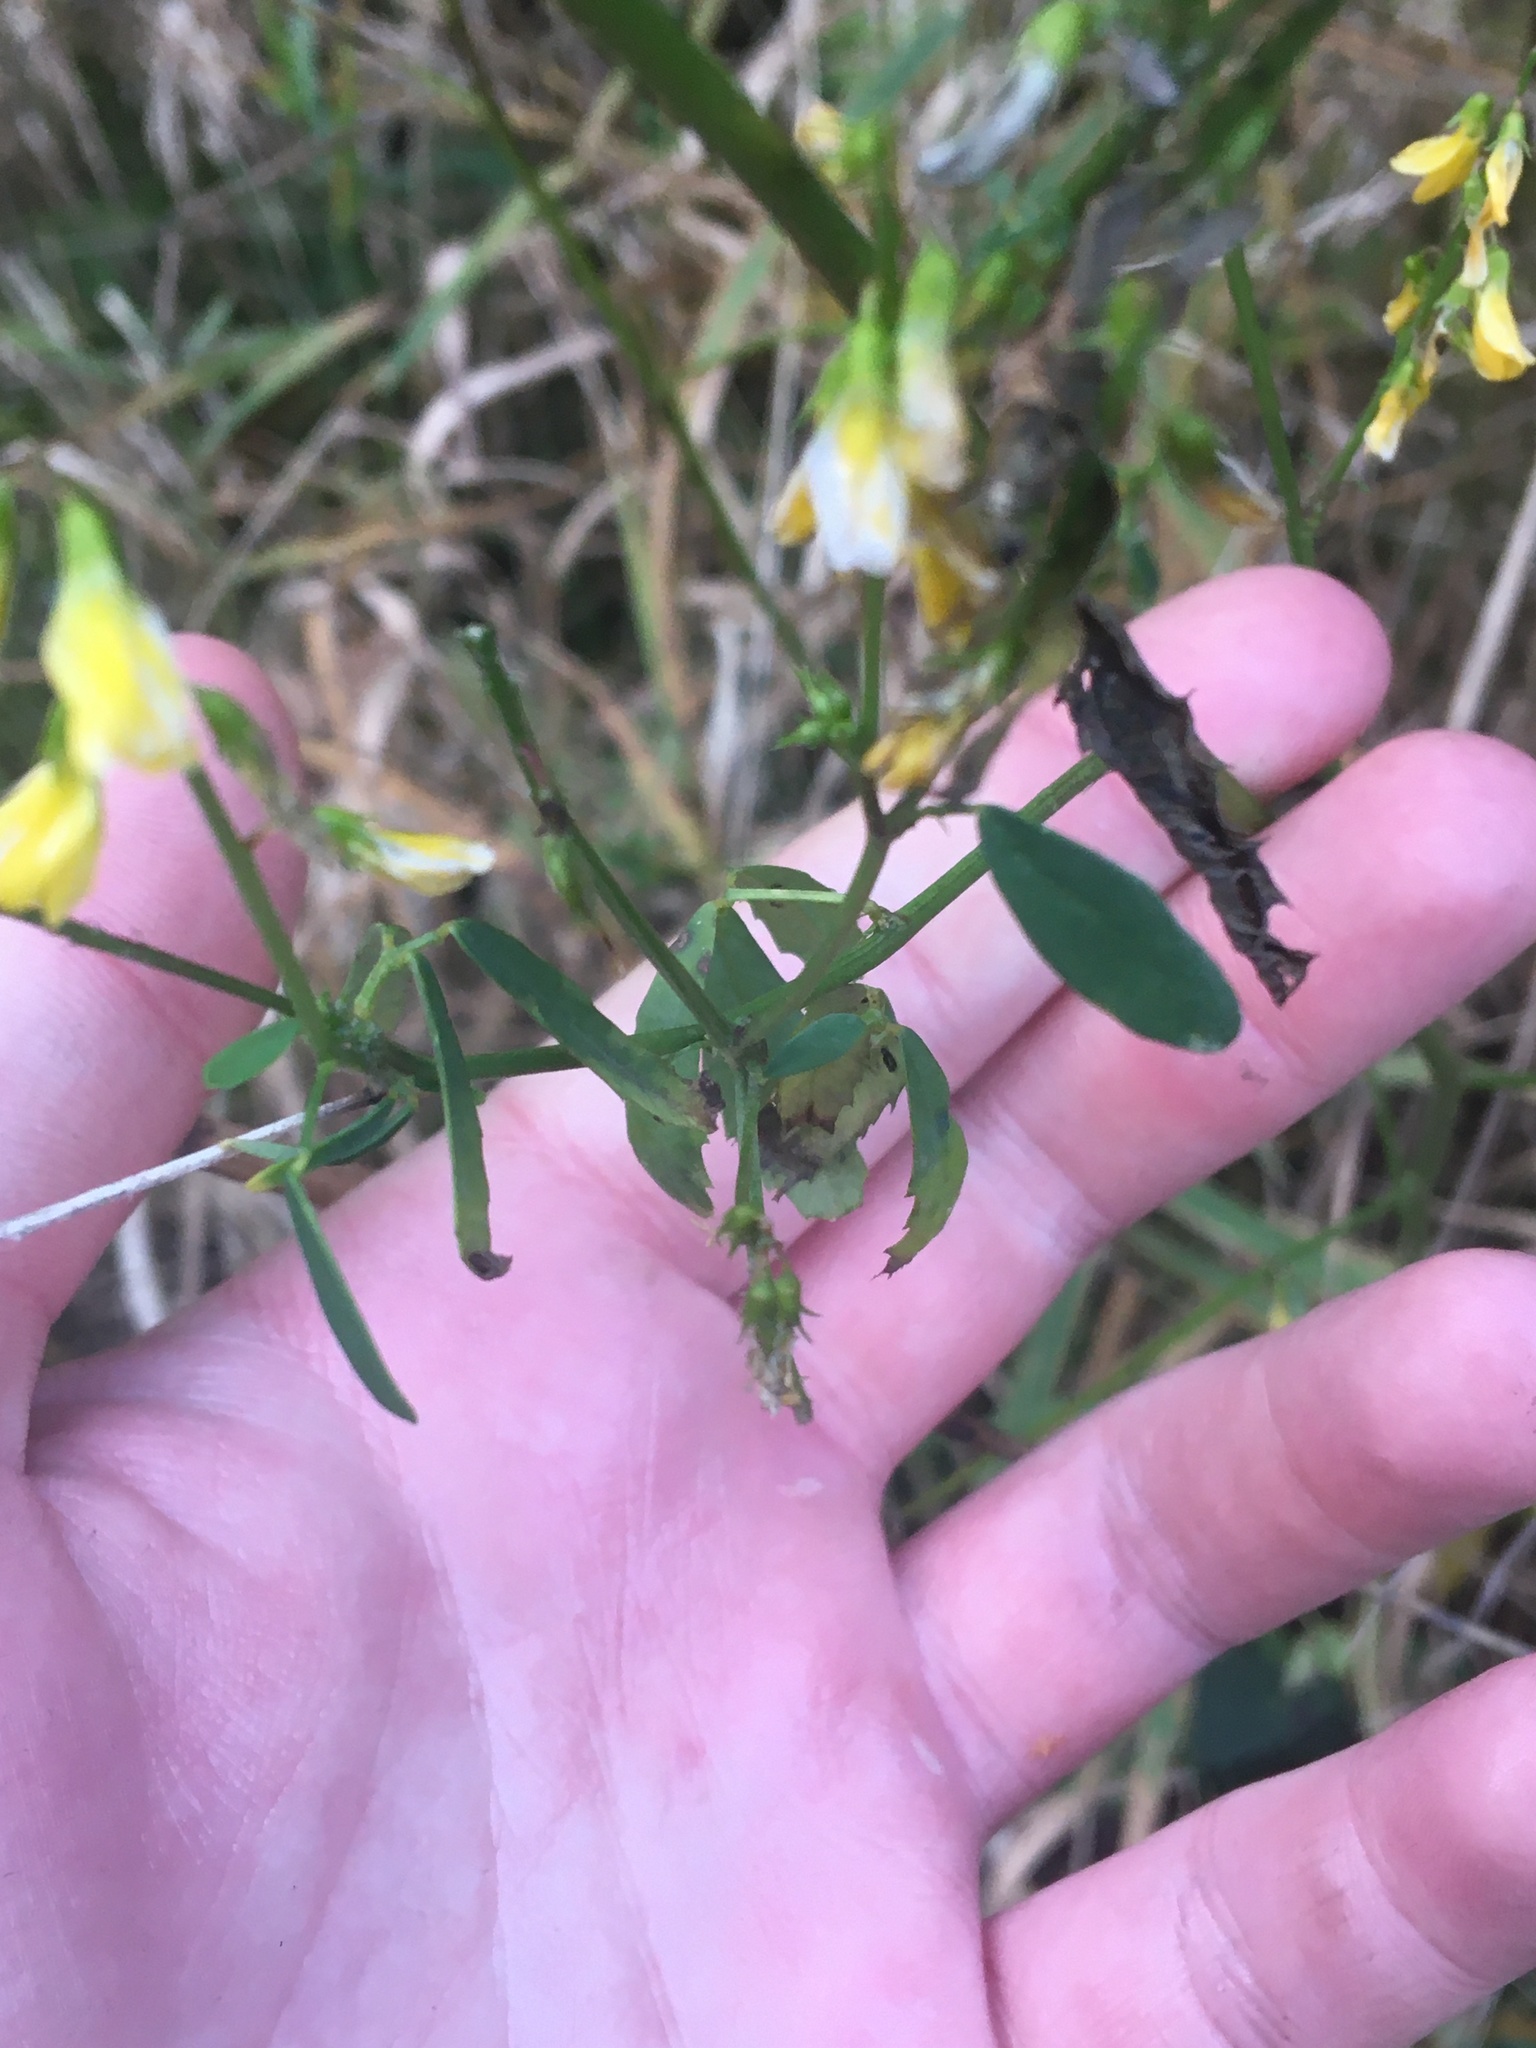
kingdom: Plantae
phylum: Tracheophyta
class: Magnoliopsida
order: Fabales
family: Fabaceae
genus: Melilotus
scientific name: Melilotus officinalis
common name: Sweetclover
